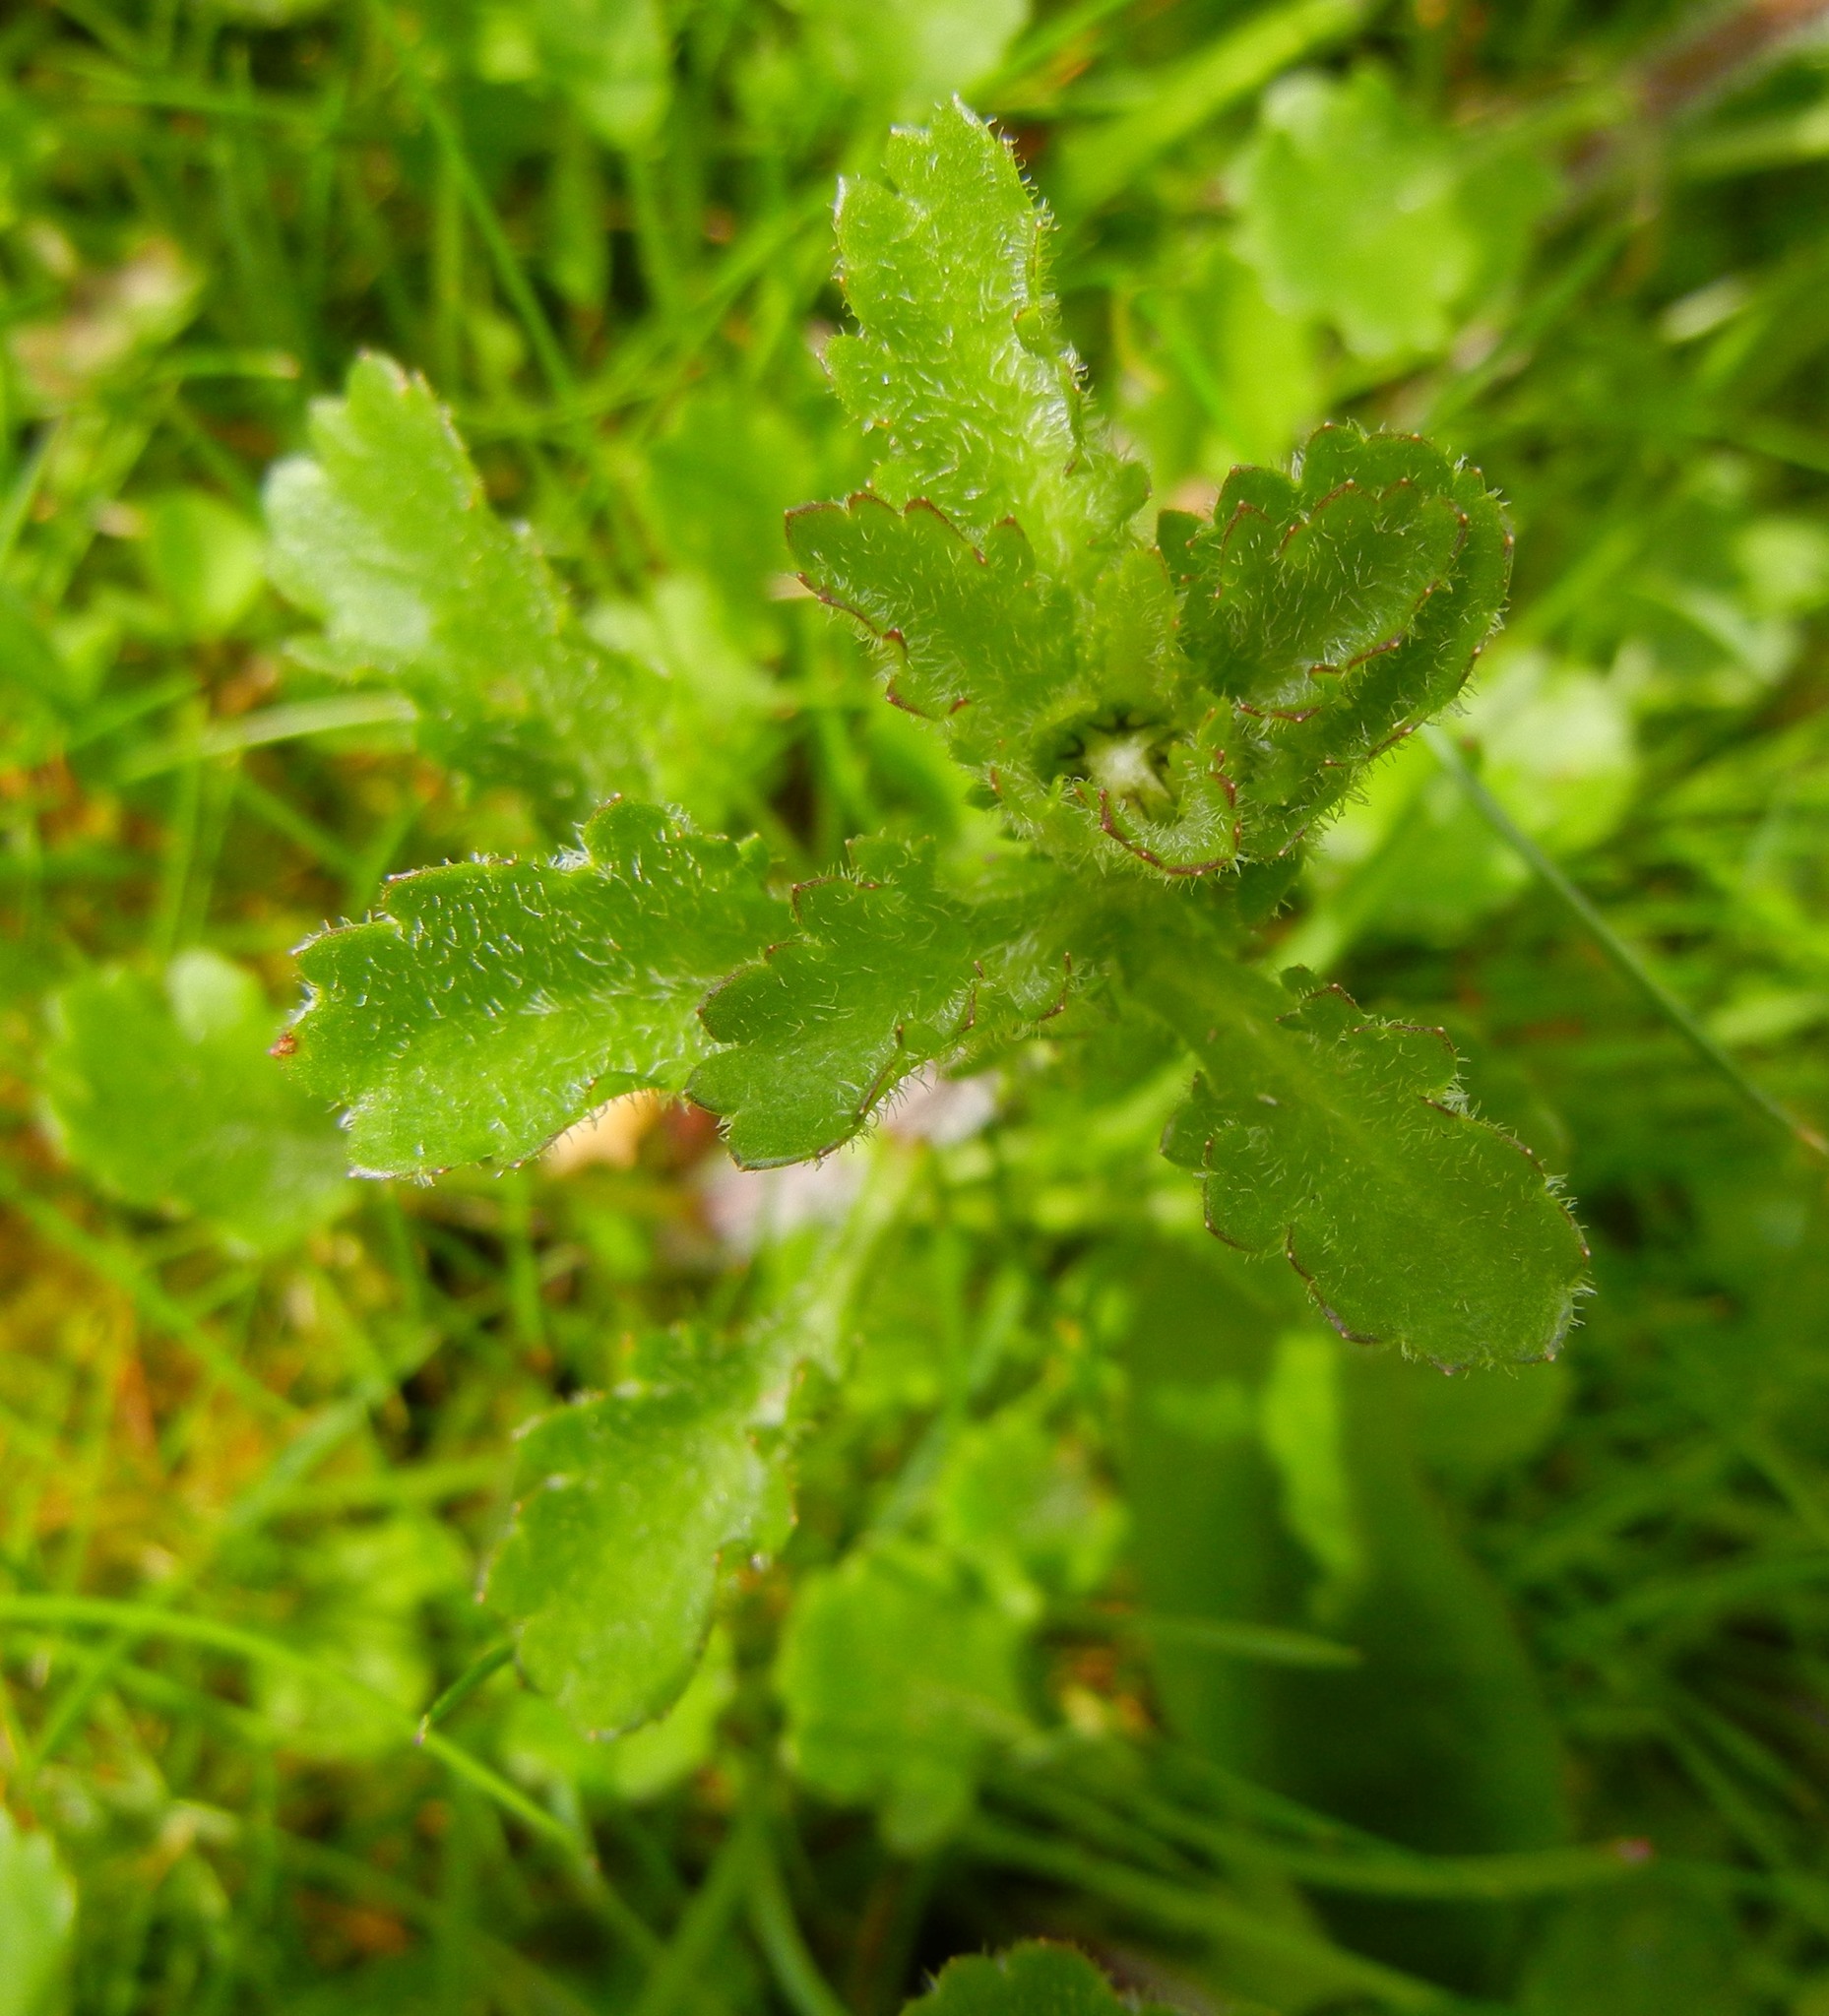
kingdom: Plantae
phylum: Tracheophyta
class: Magnoliopsida
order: Asterales
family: Asteraceae
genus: Leucanthemum
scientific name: Leucanthemum vulgare
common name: Oxeye daisy
